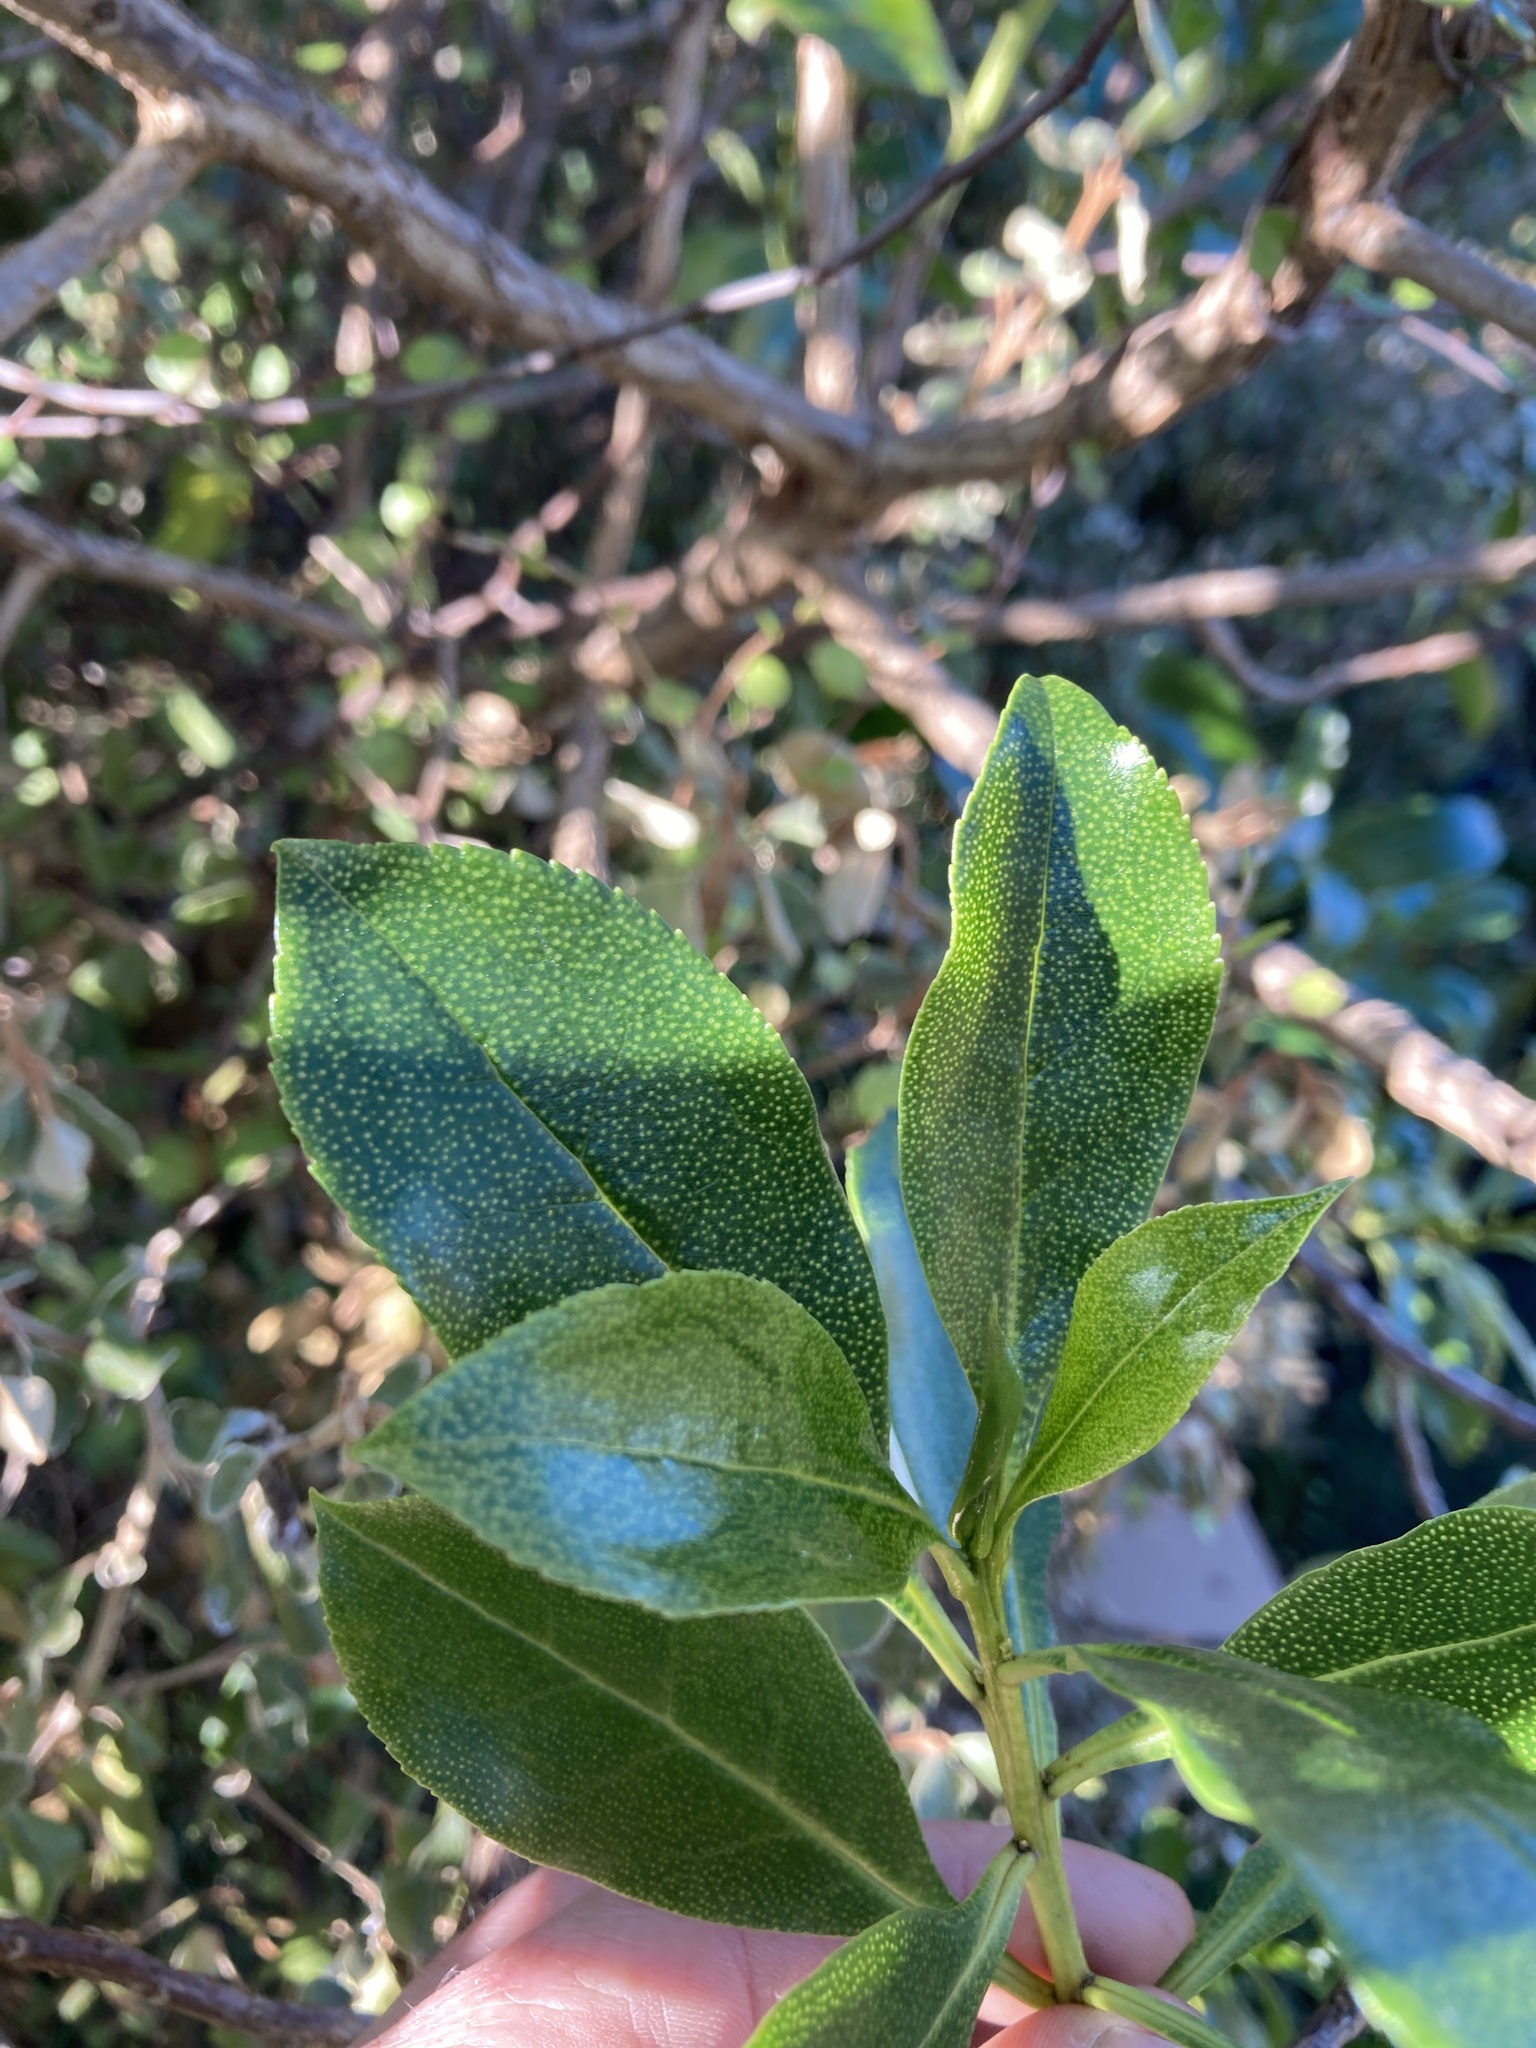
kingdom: Plantae
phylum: Tracheophyta
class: Magnoliopsida
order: Lamiales
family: Scrophulariaceae
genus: Myoporum
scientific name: Myoporum laetum
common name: Ngaio tree
